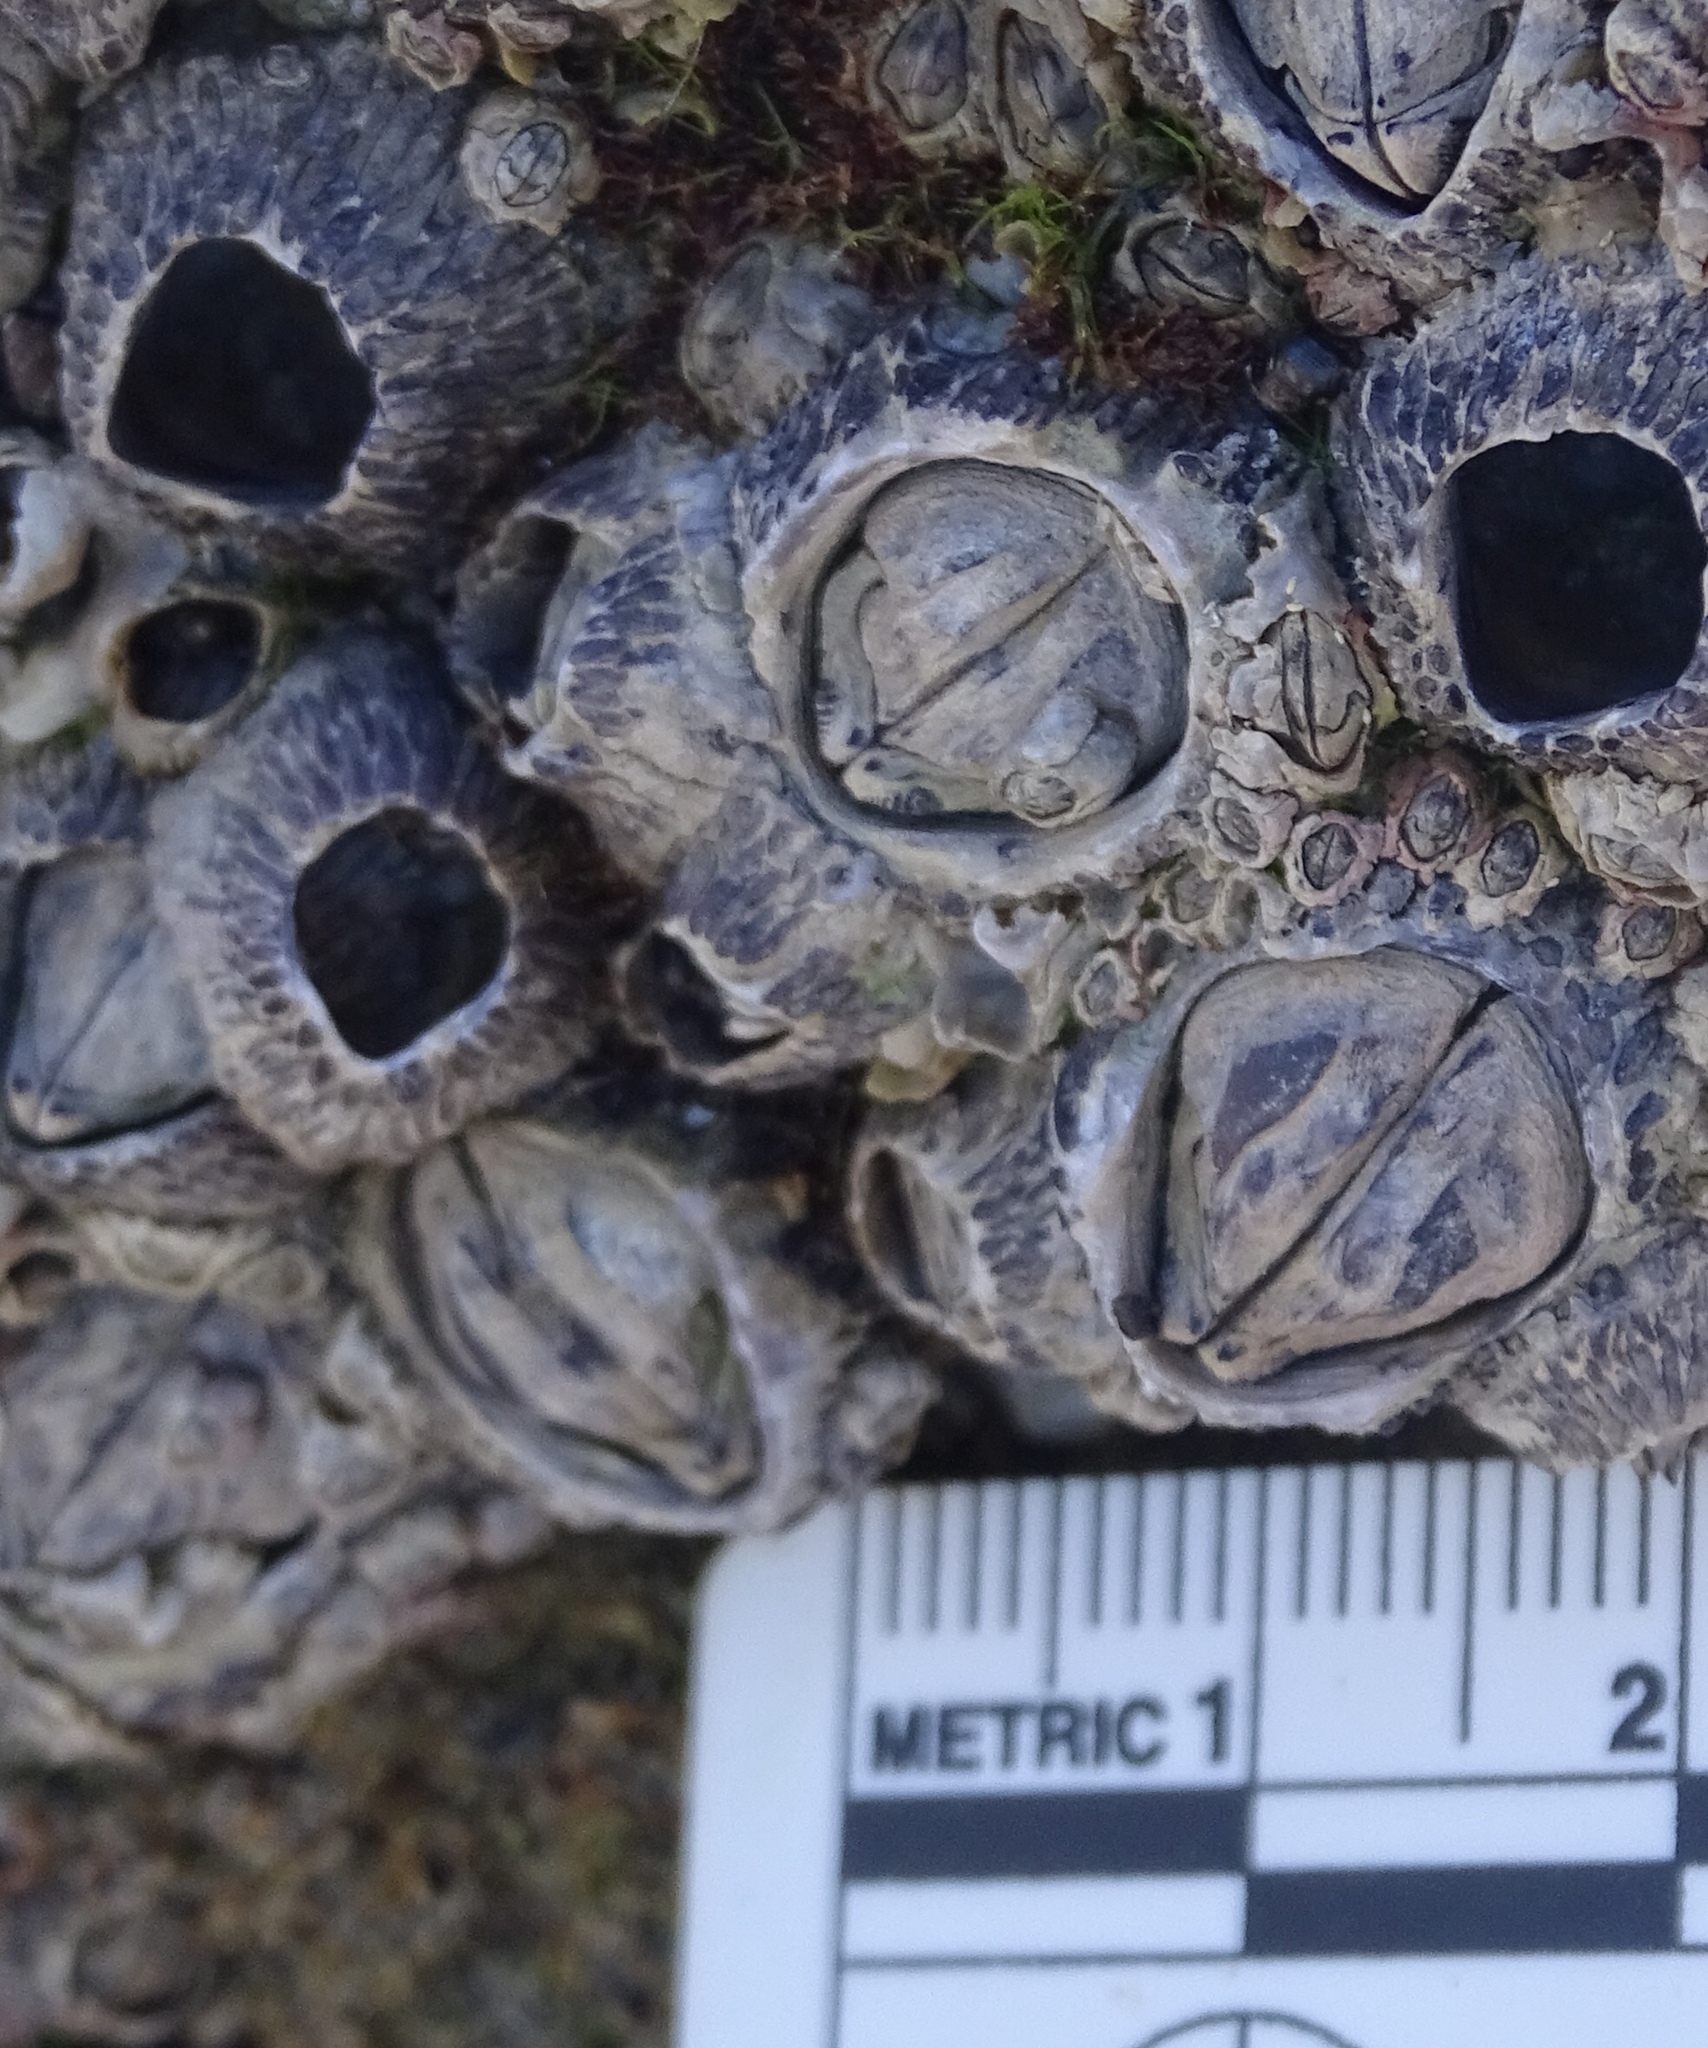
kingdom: Animalia
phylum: Arthropoda
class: Maxillopoda
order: Sessilia
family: Tetraclitidae
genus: Tetraclita
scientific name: Tetraclita stalactifera
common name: Ribbed barnacle
